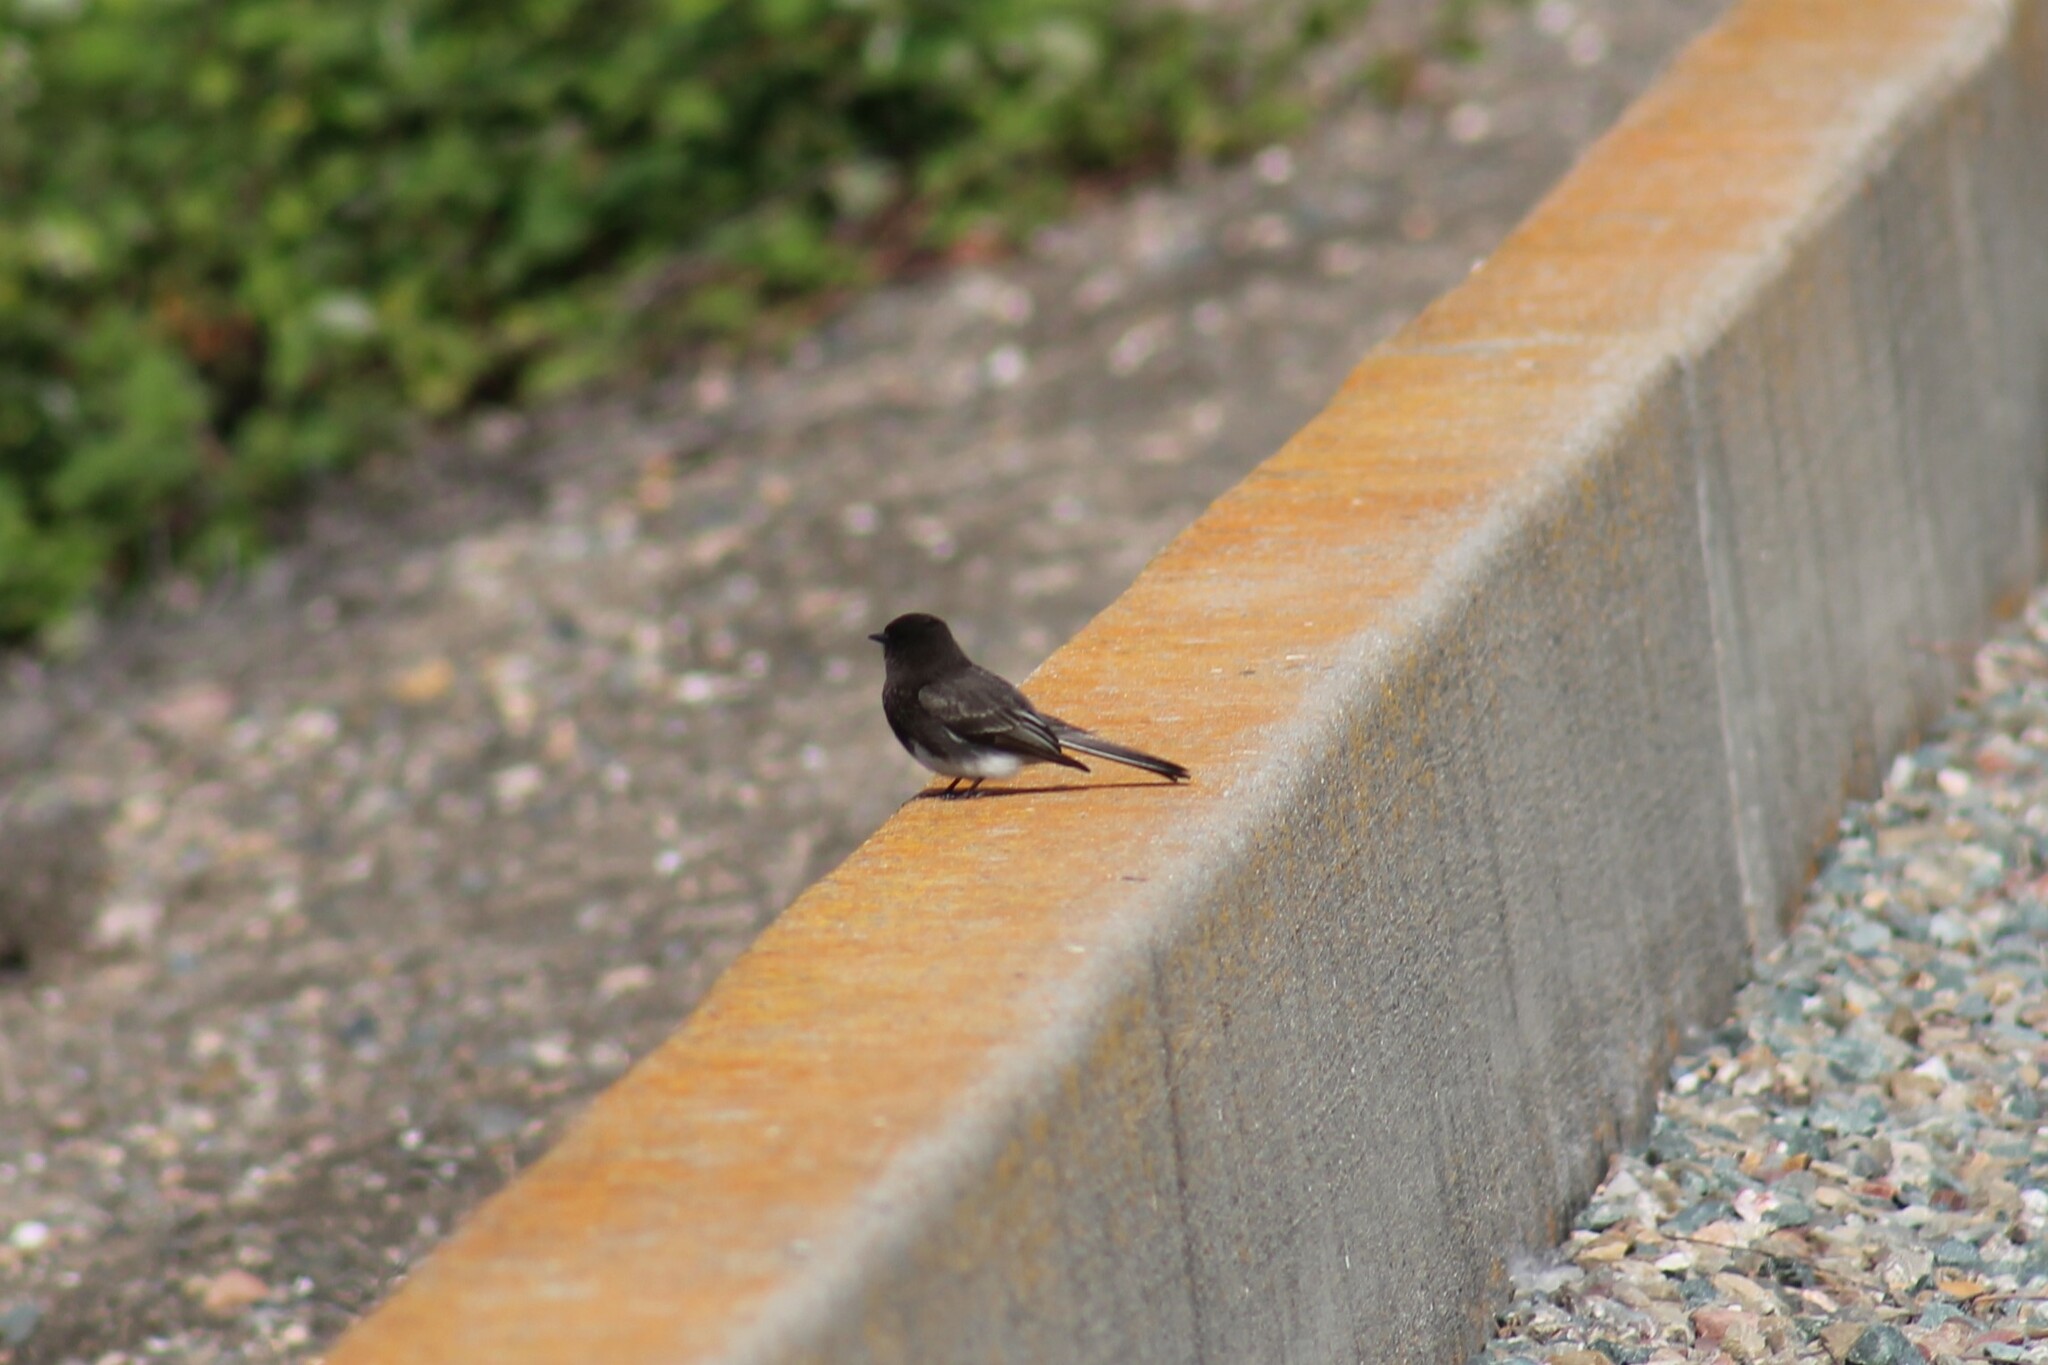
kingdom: Animalia
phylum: Chordata
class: Aves
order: Passeriformes
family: Tyrannidae
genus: Sayornis
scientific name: Sayornis nigricans
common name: Black phoebe
